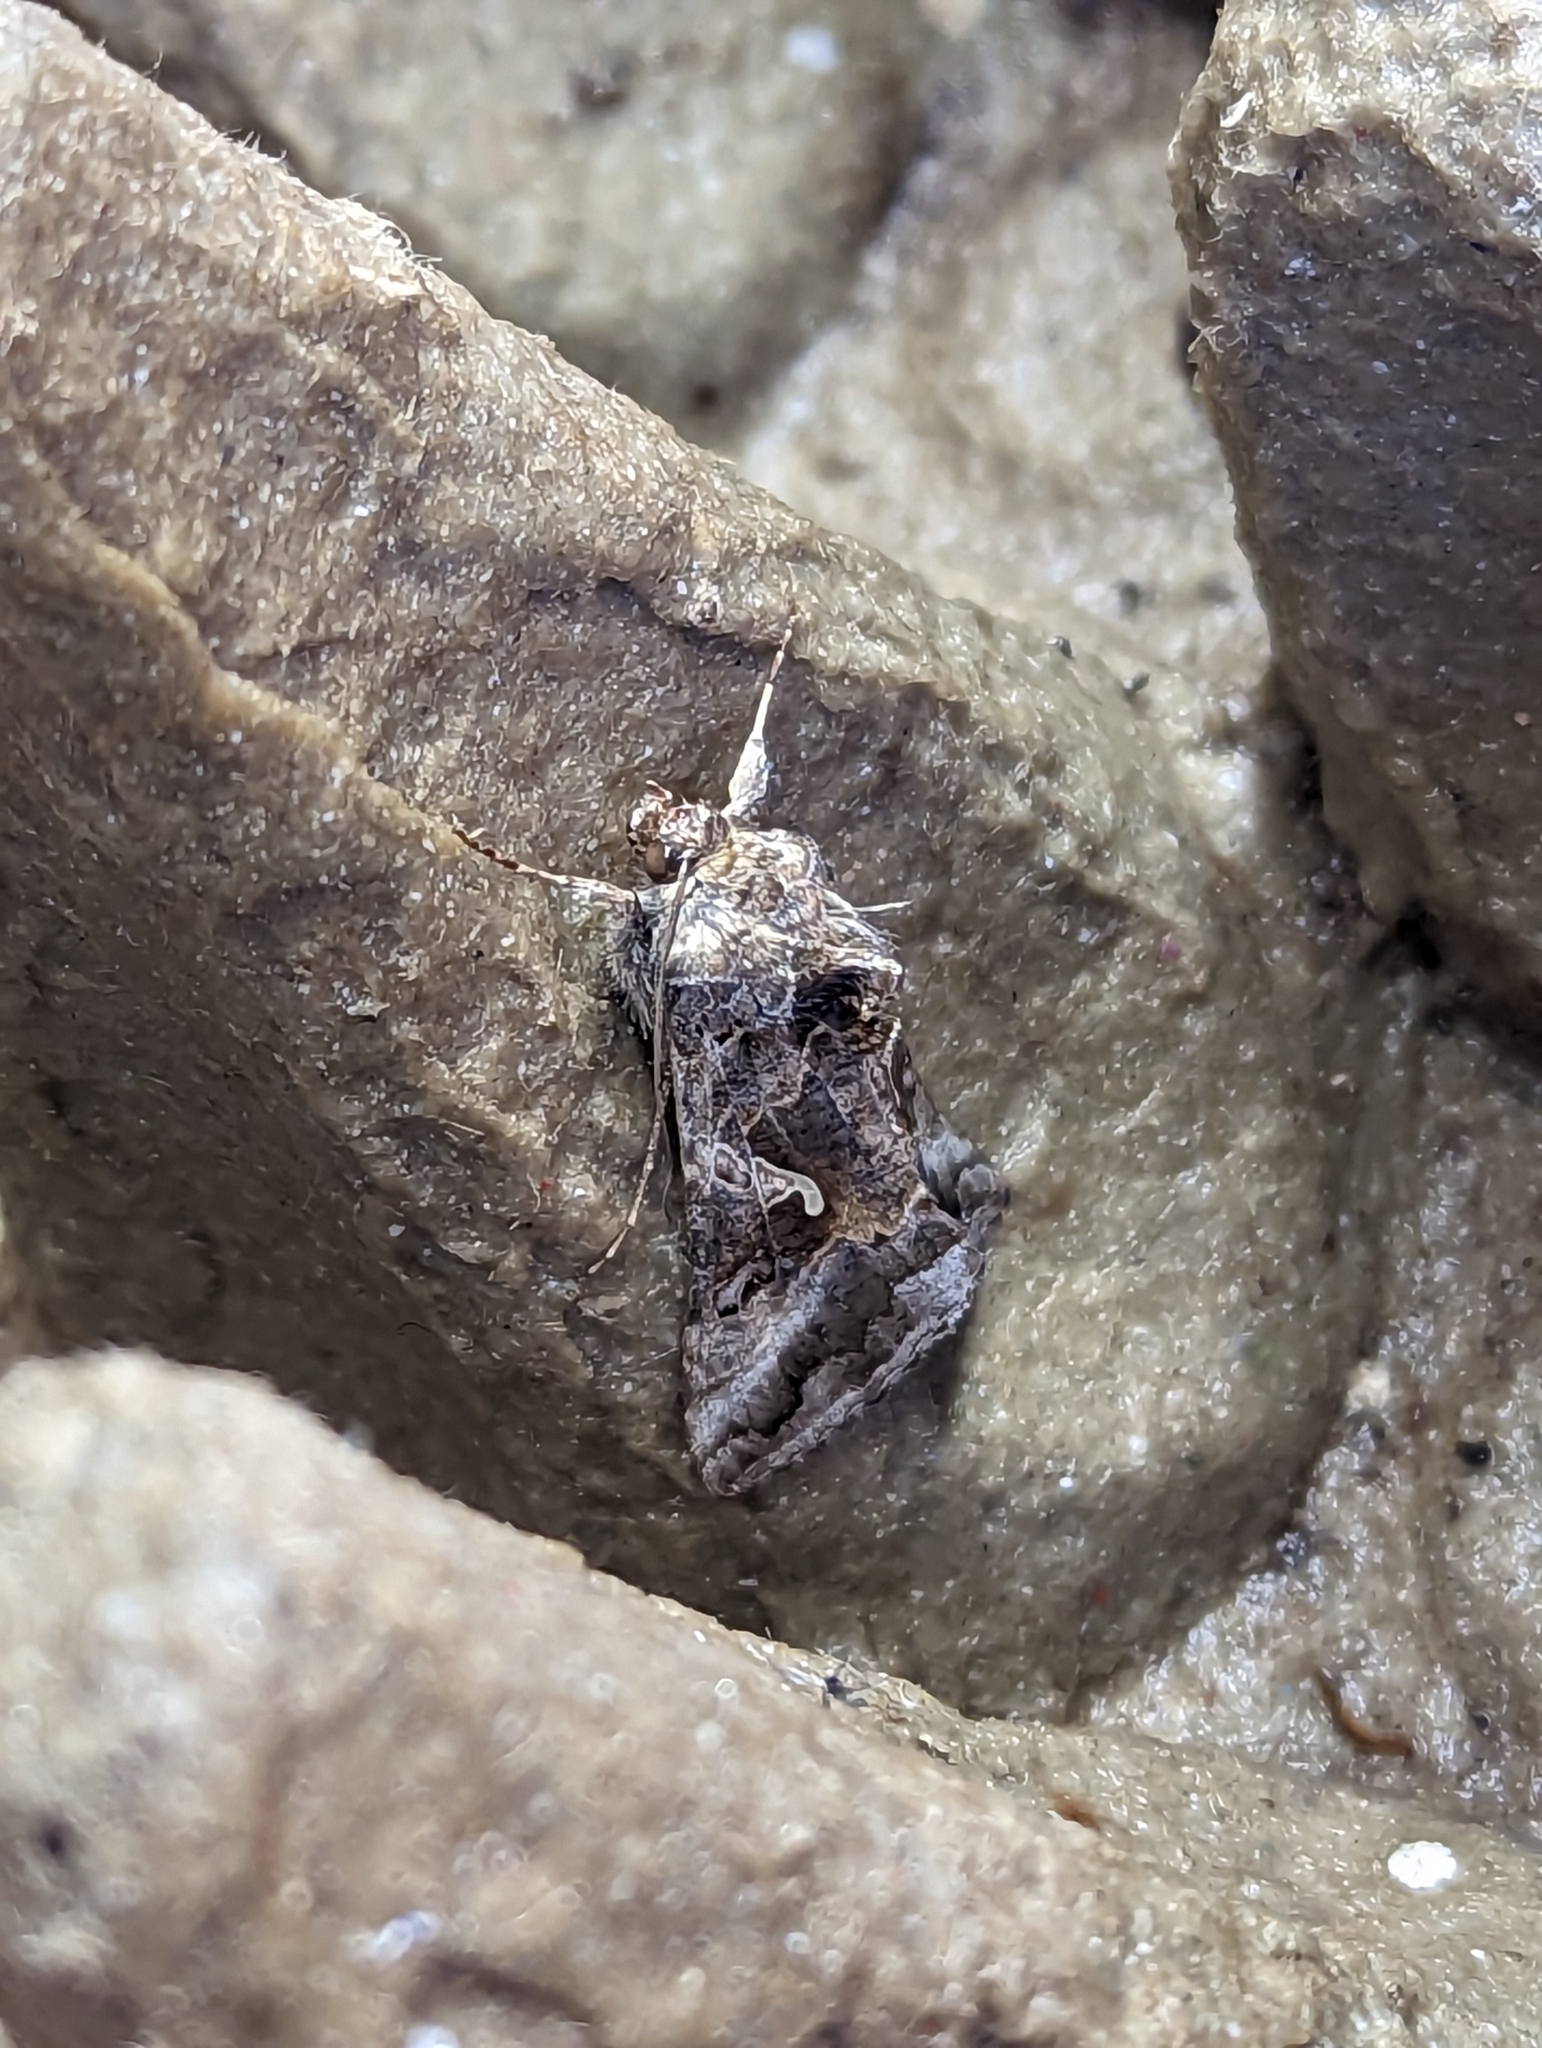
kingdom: Animalia
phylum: Arthropoda
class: Insecta
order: Lepidoptera
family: Noctuidae
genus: Autographa
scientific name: Autographa gamma
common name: Silver y
